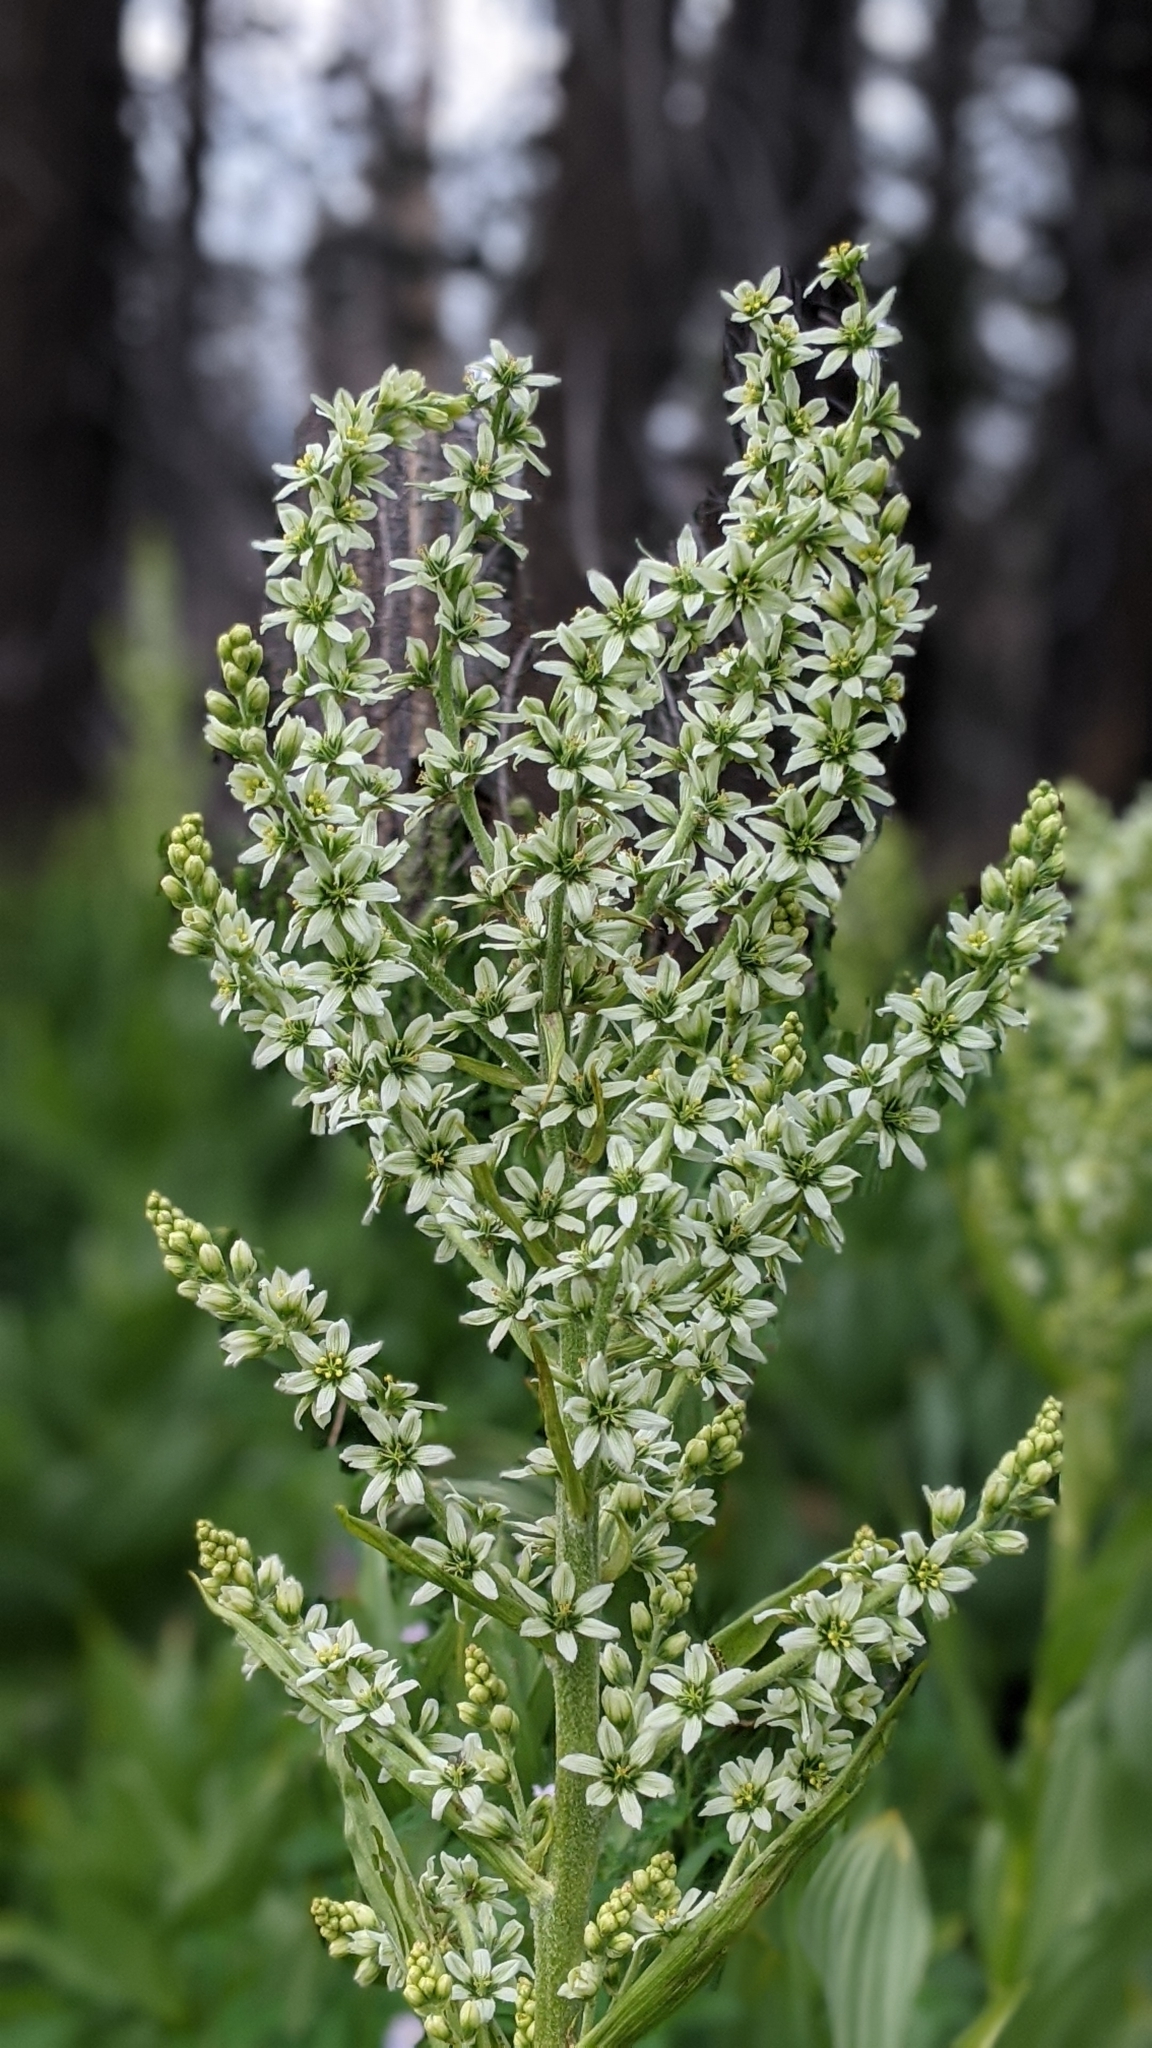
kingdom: Plantae
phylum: Tracheophyta
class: Liliopsida
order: Liliales
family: Melanthiaceae
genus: Veratrum
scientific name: Veratrum californicum
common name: California veratrum
